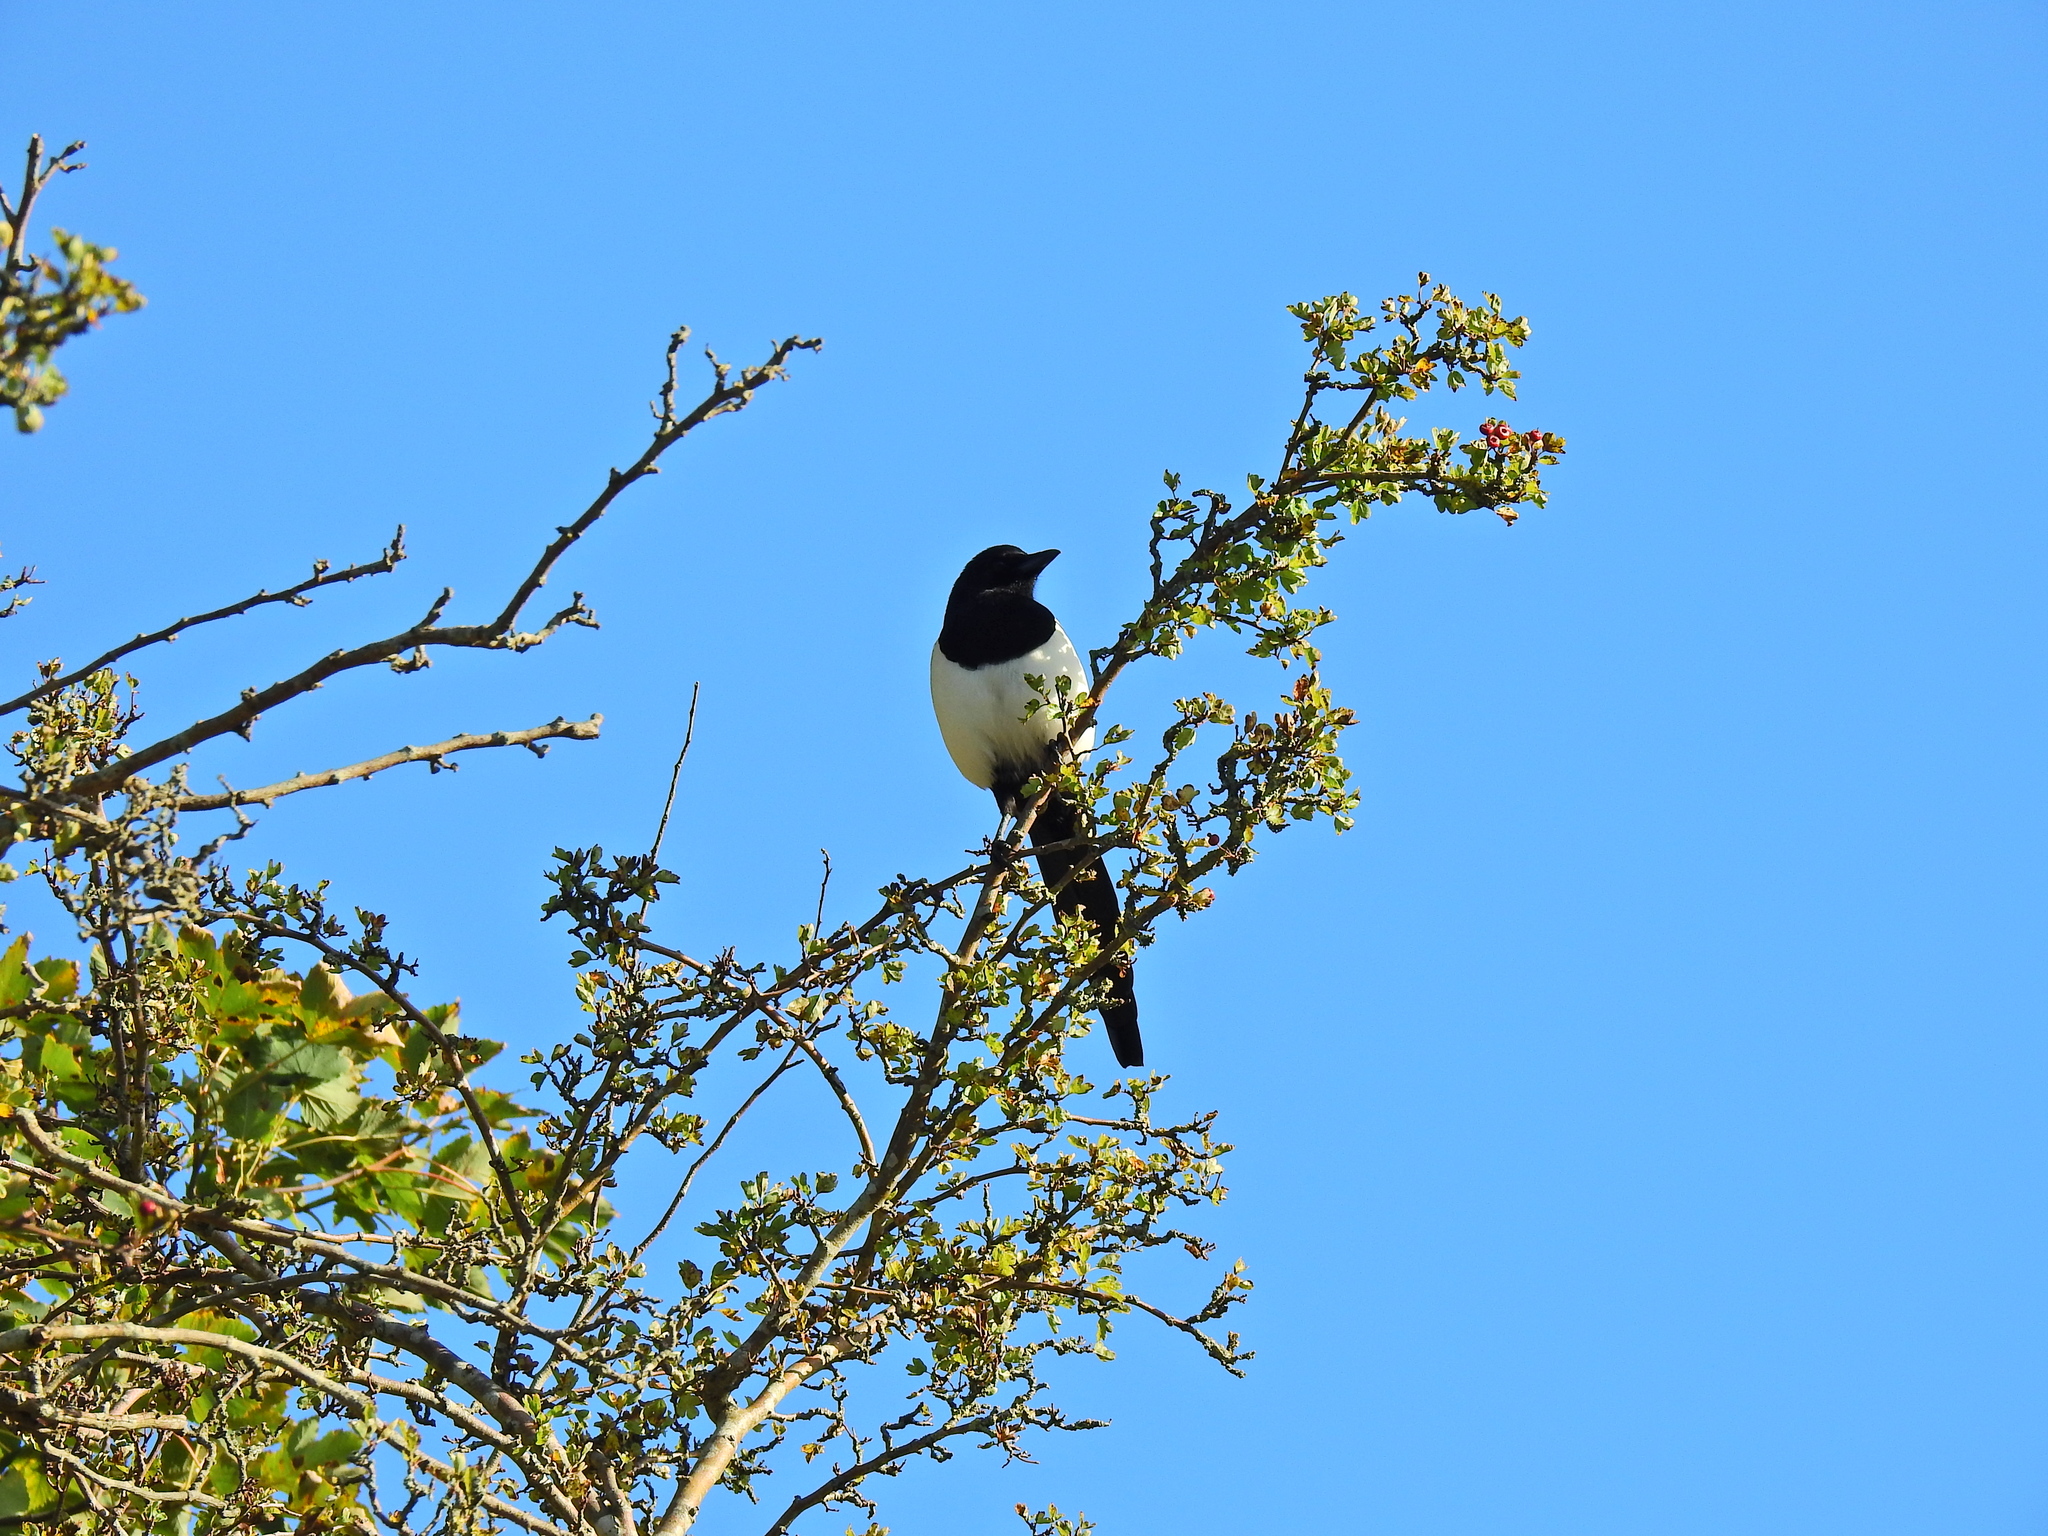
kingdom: Animalia
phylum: Chordata
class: Aves
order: Passeriformes
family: Corvidae
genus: Pica
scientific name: Pica pica
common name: Eurasian magpie
